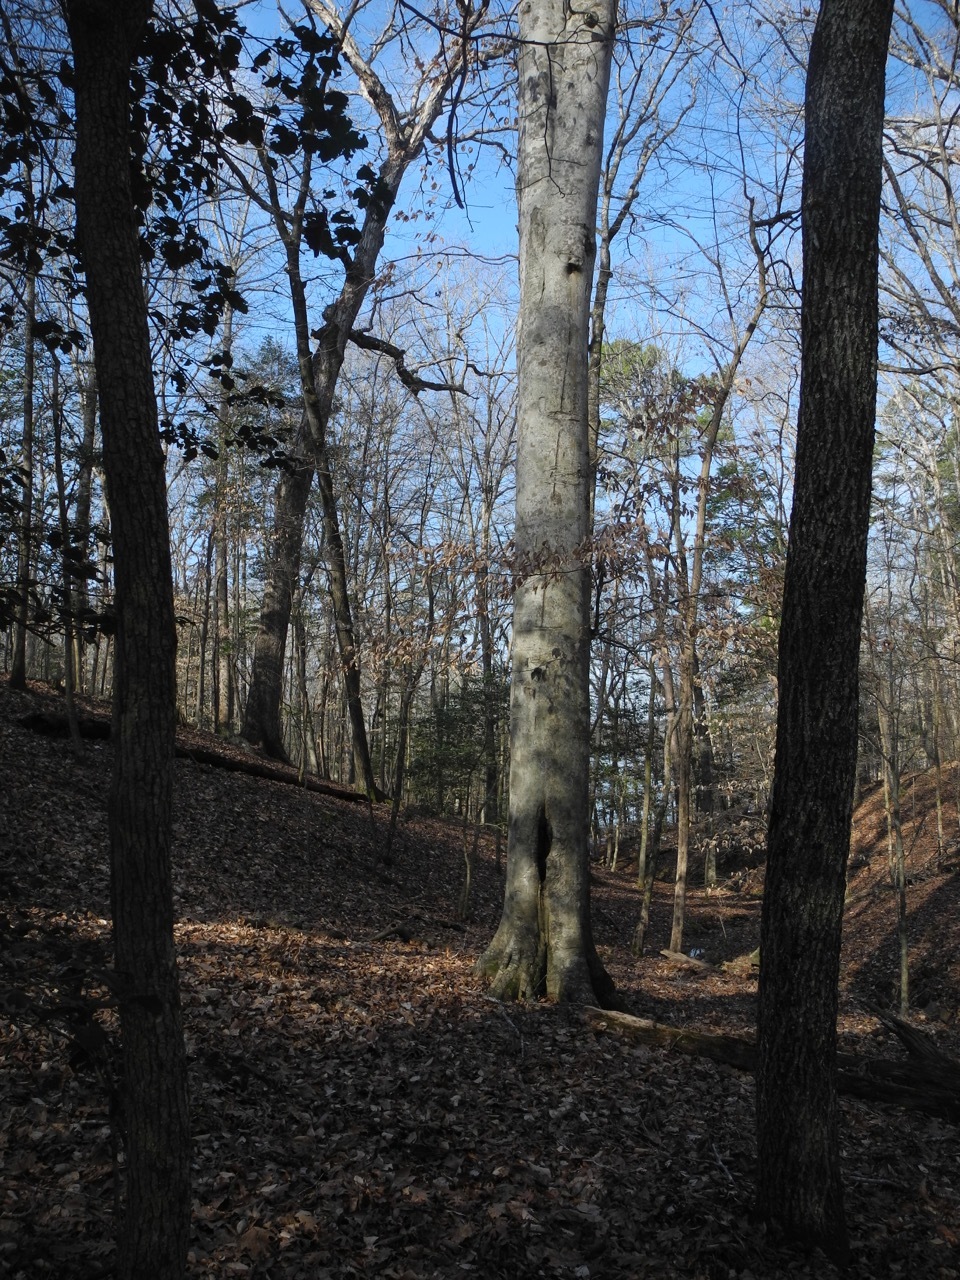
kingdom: Plantae
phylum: Tracheophyta
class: Magnoliopsida
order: Fagales
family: Fagaceae
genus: Fagus
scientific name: Fagus grandifolia
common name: American beech
